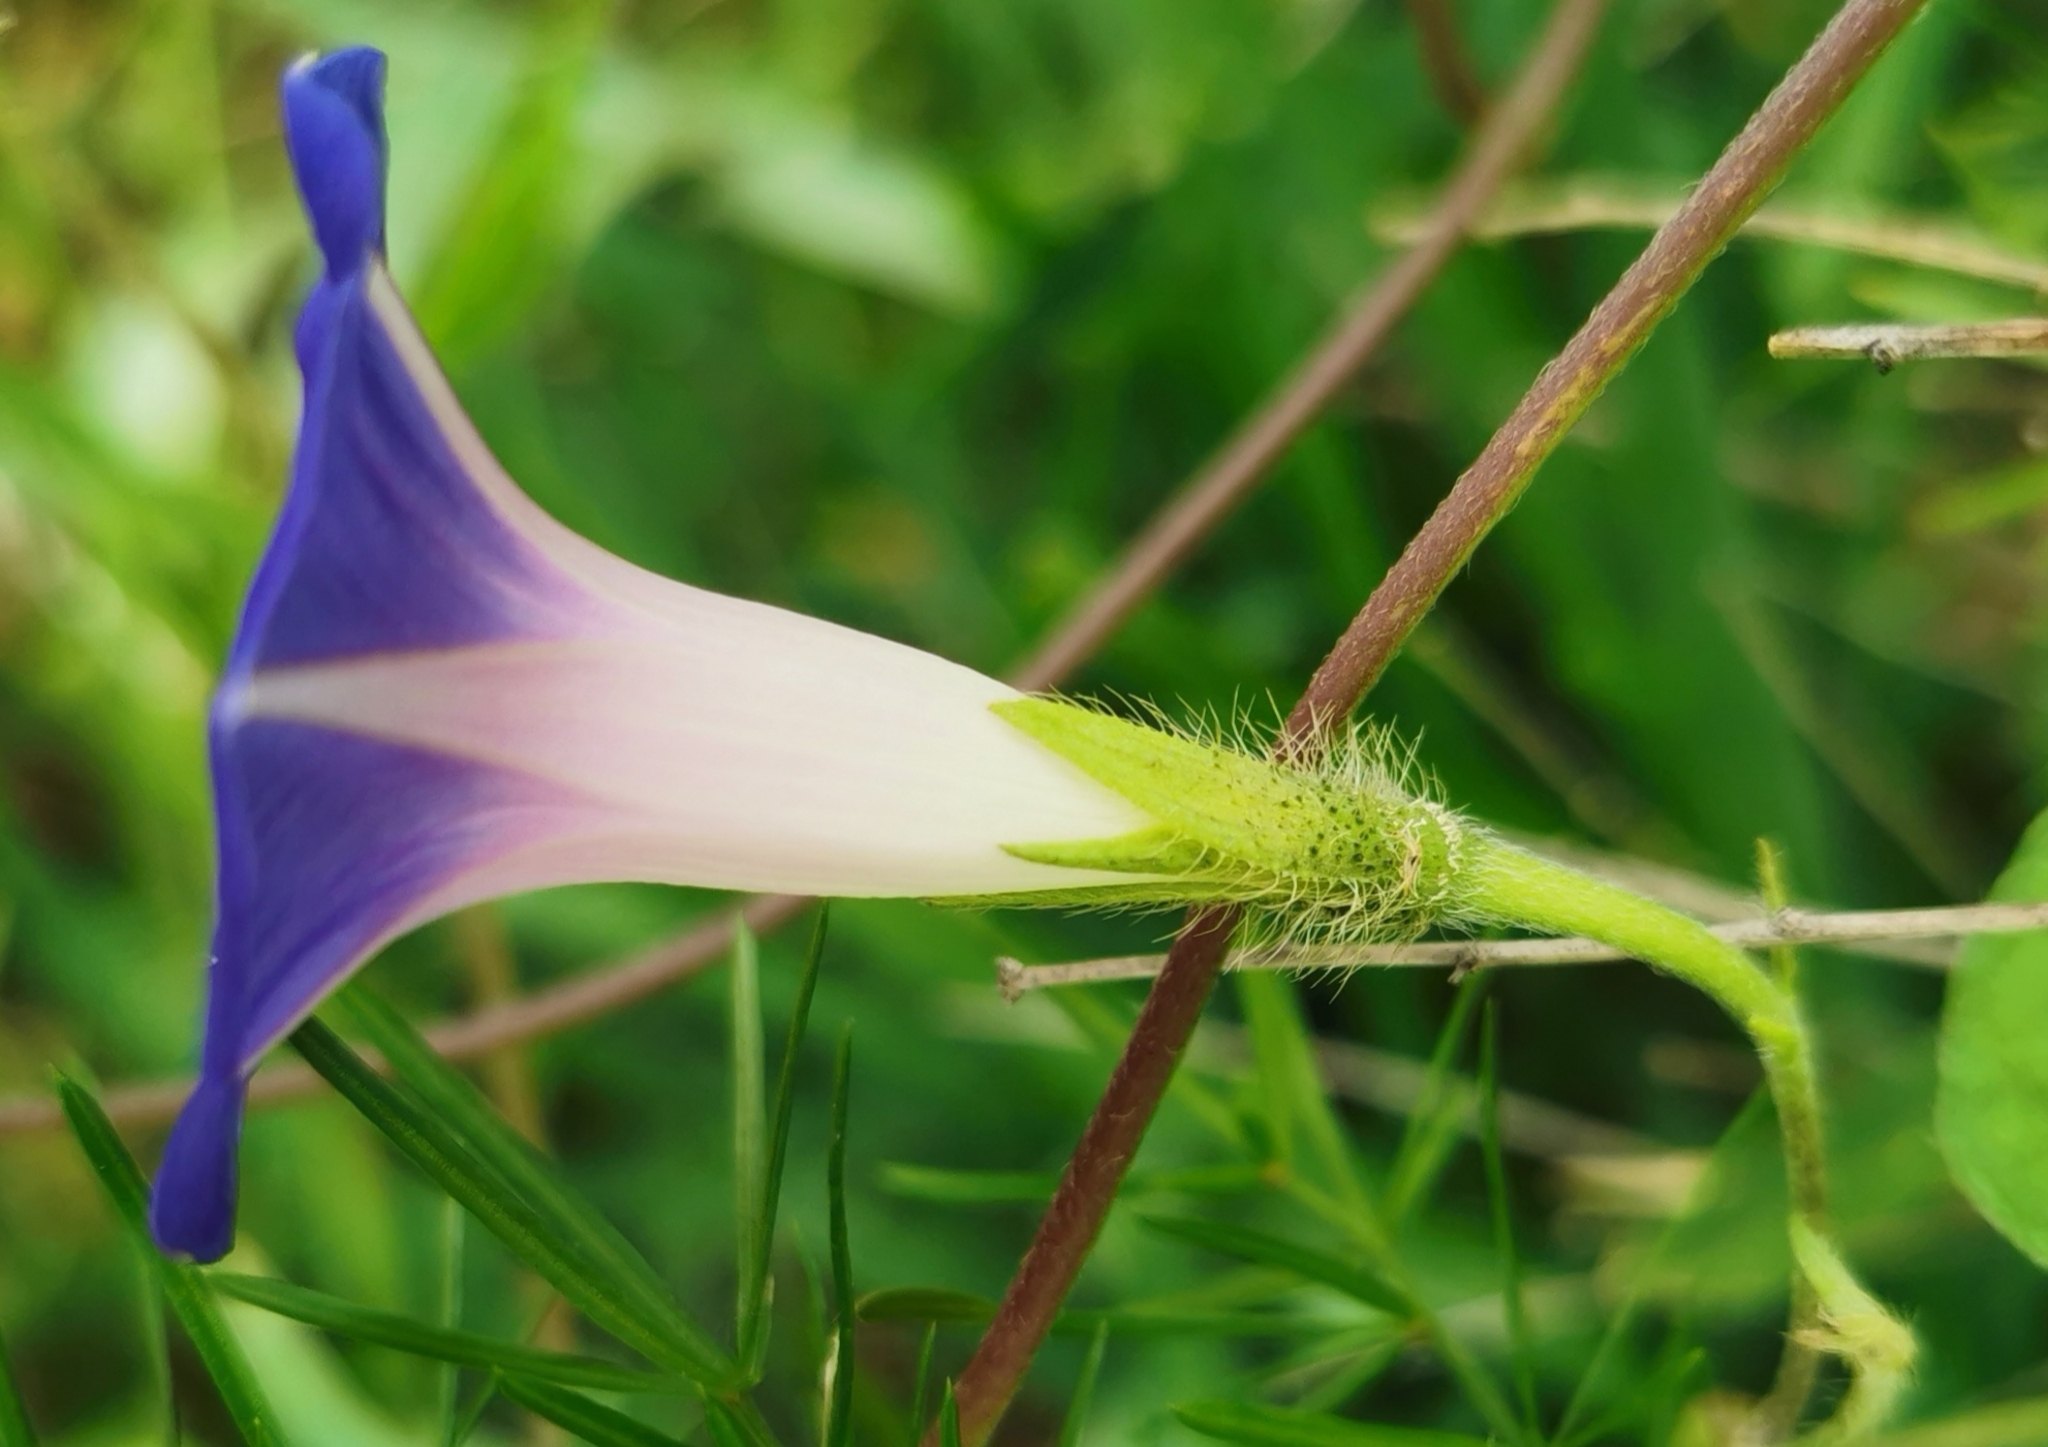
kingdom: Plantae
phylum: Tracheophyta
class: Magnoliopsida
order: Solanales
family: Convolvulaceae
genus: Ipomoea
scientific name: Ipomoea purpurea
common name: Common morning-glory
